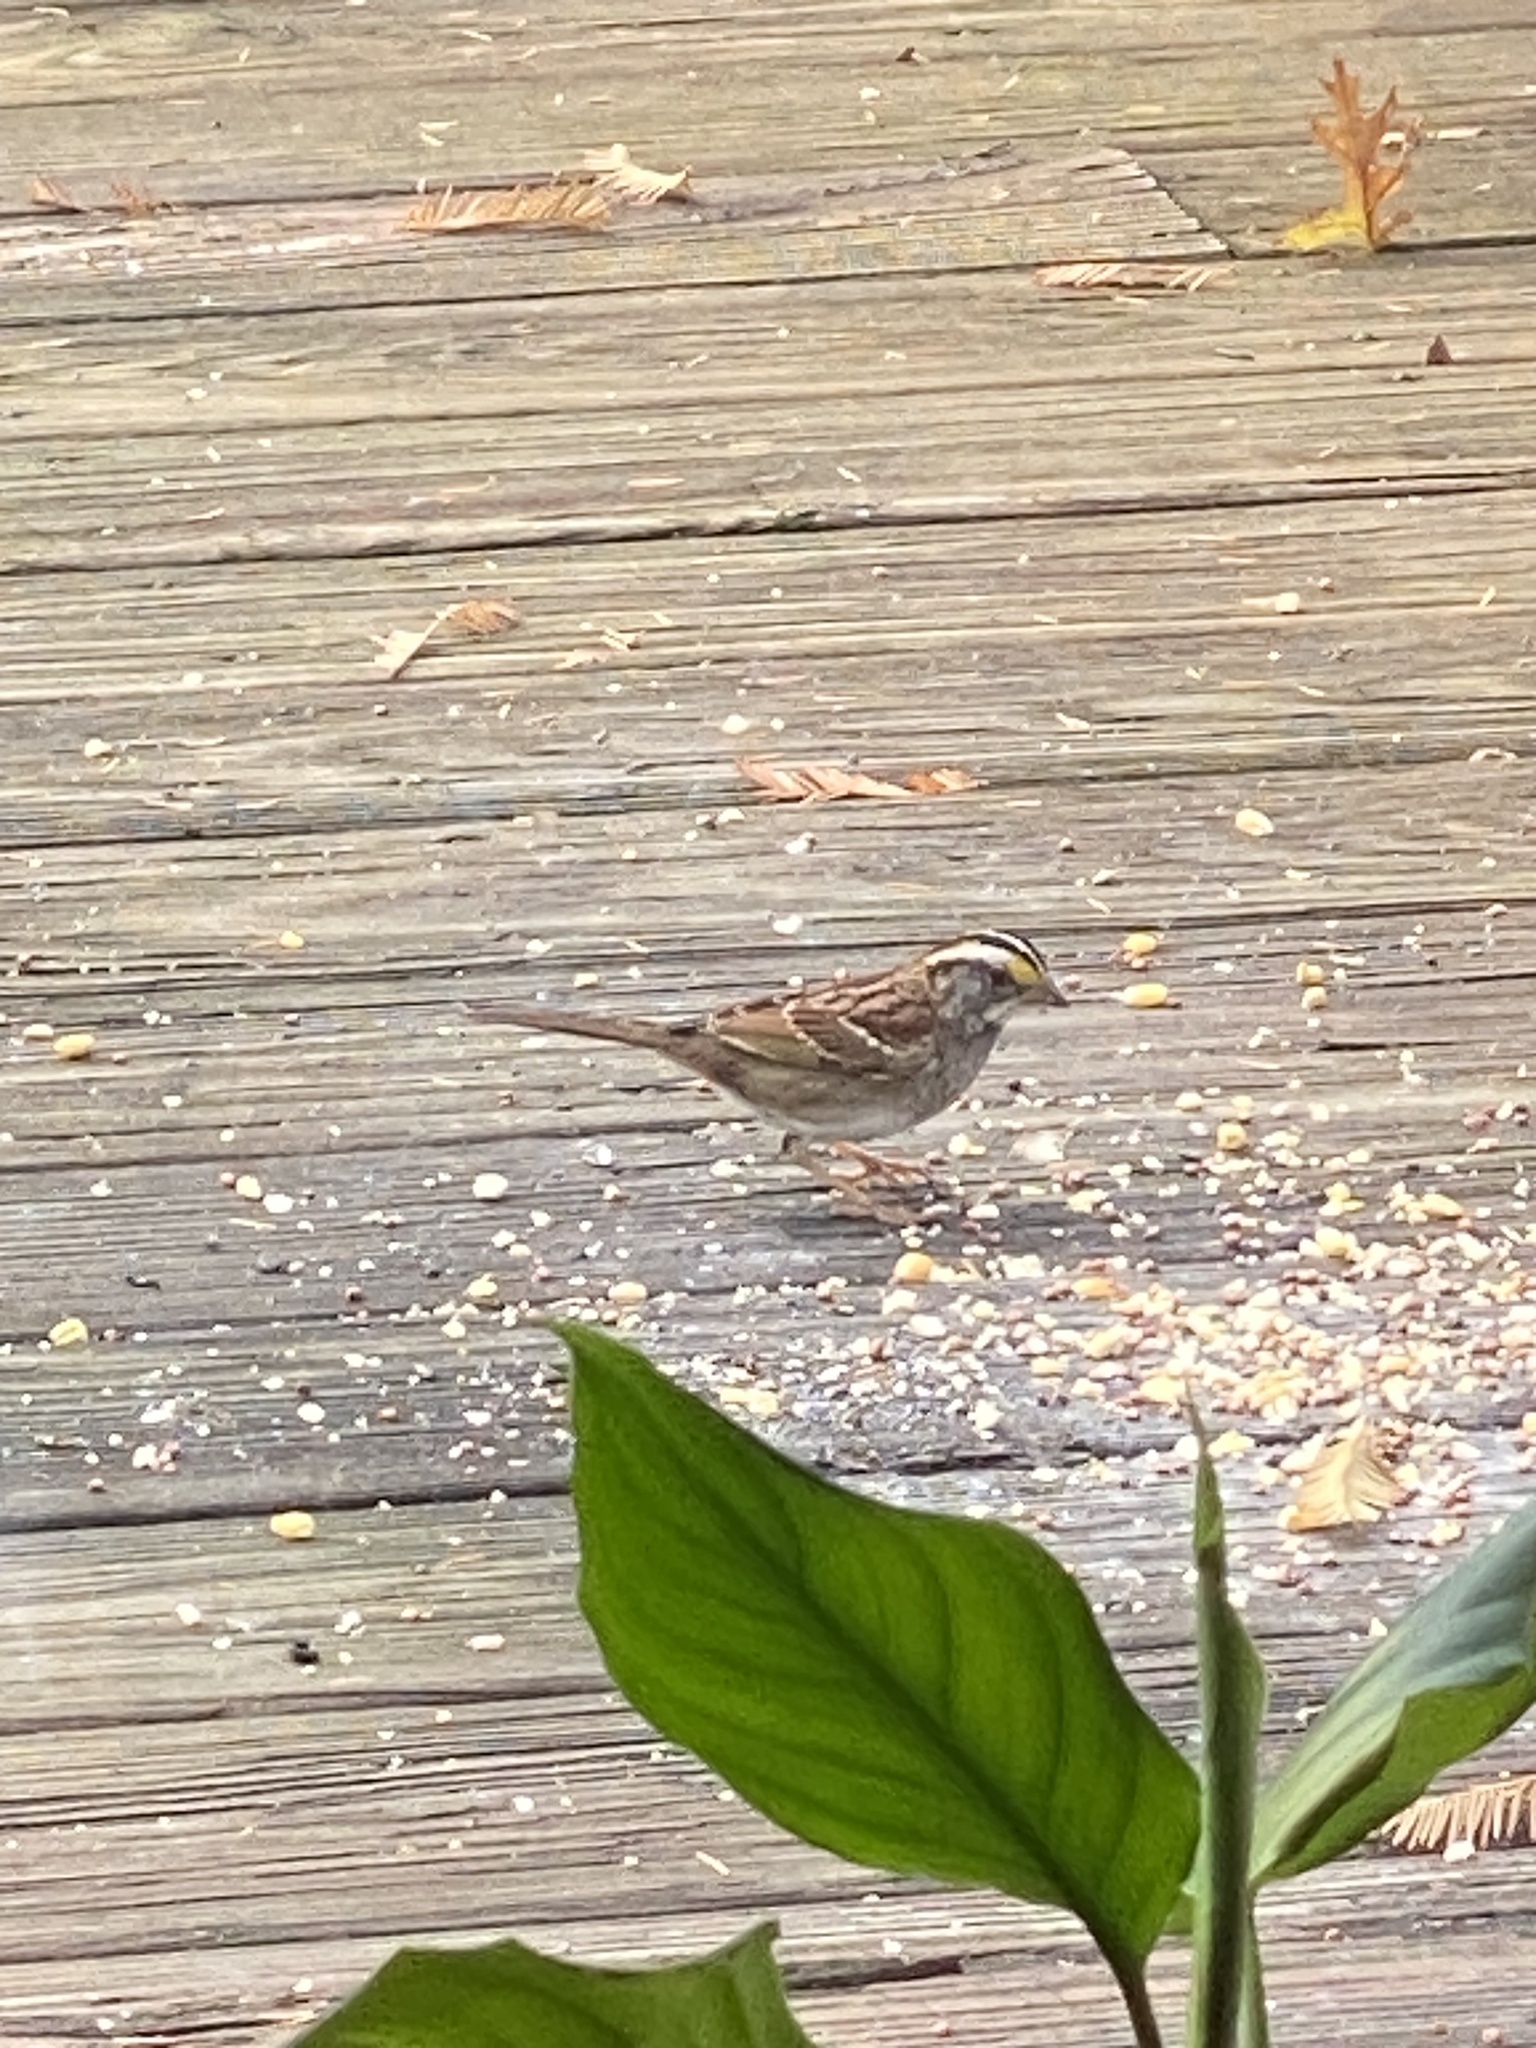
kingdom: Animalia
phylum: Chordata
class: Aves
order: Passeriformes
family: Passerellidae
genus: Zonotrichia
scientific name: Zonotrichia albicollis
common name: White-throated sparrow
